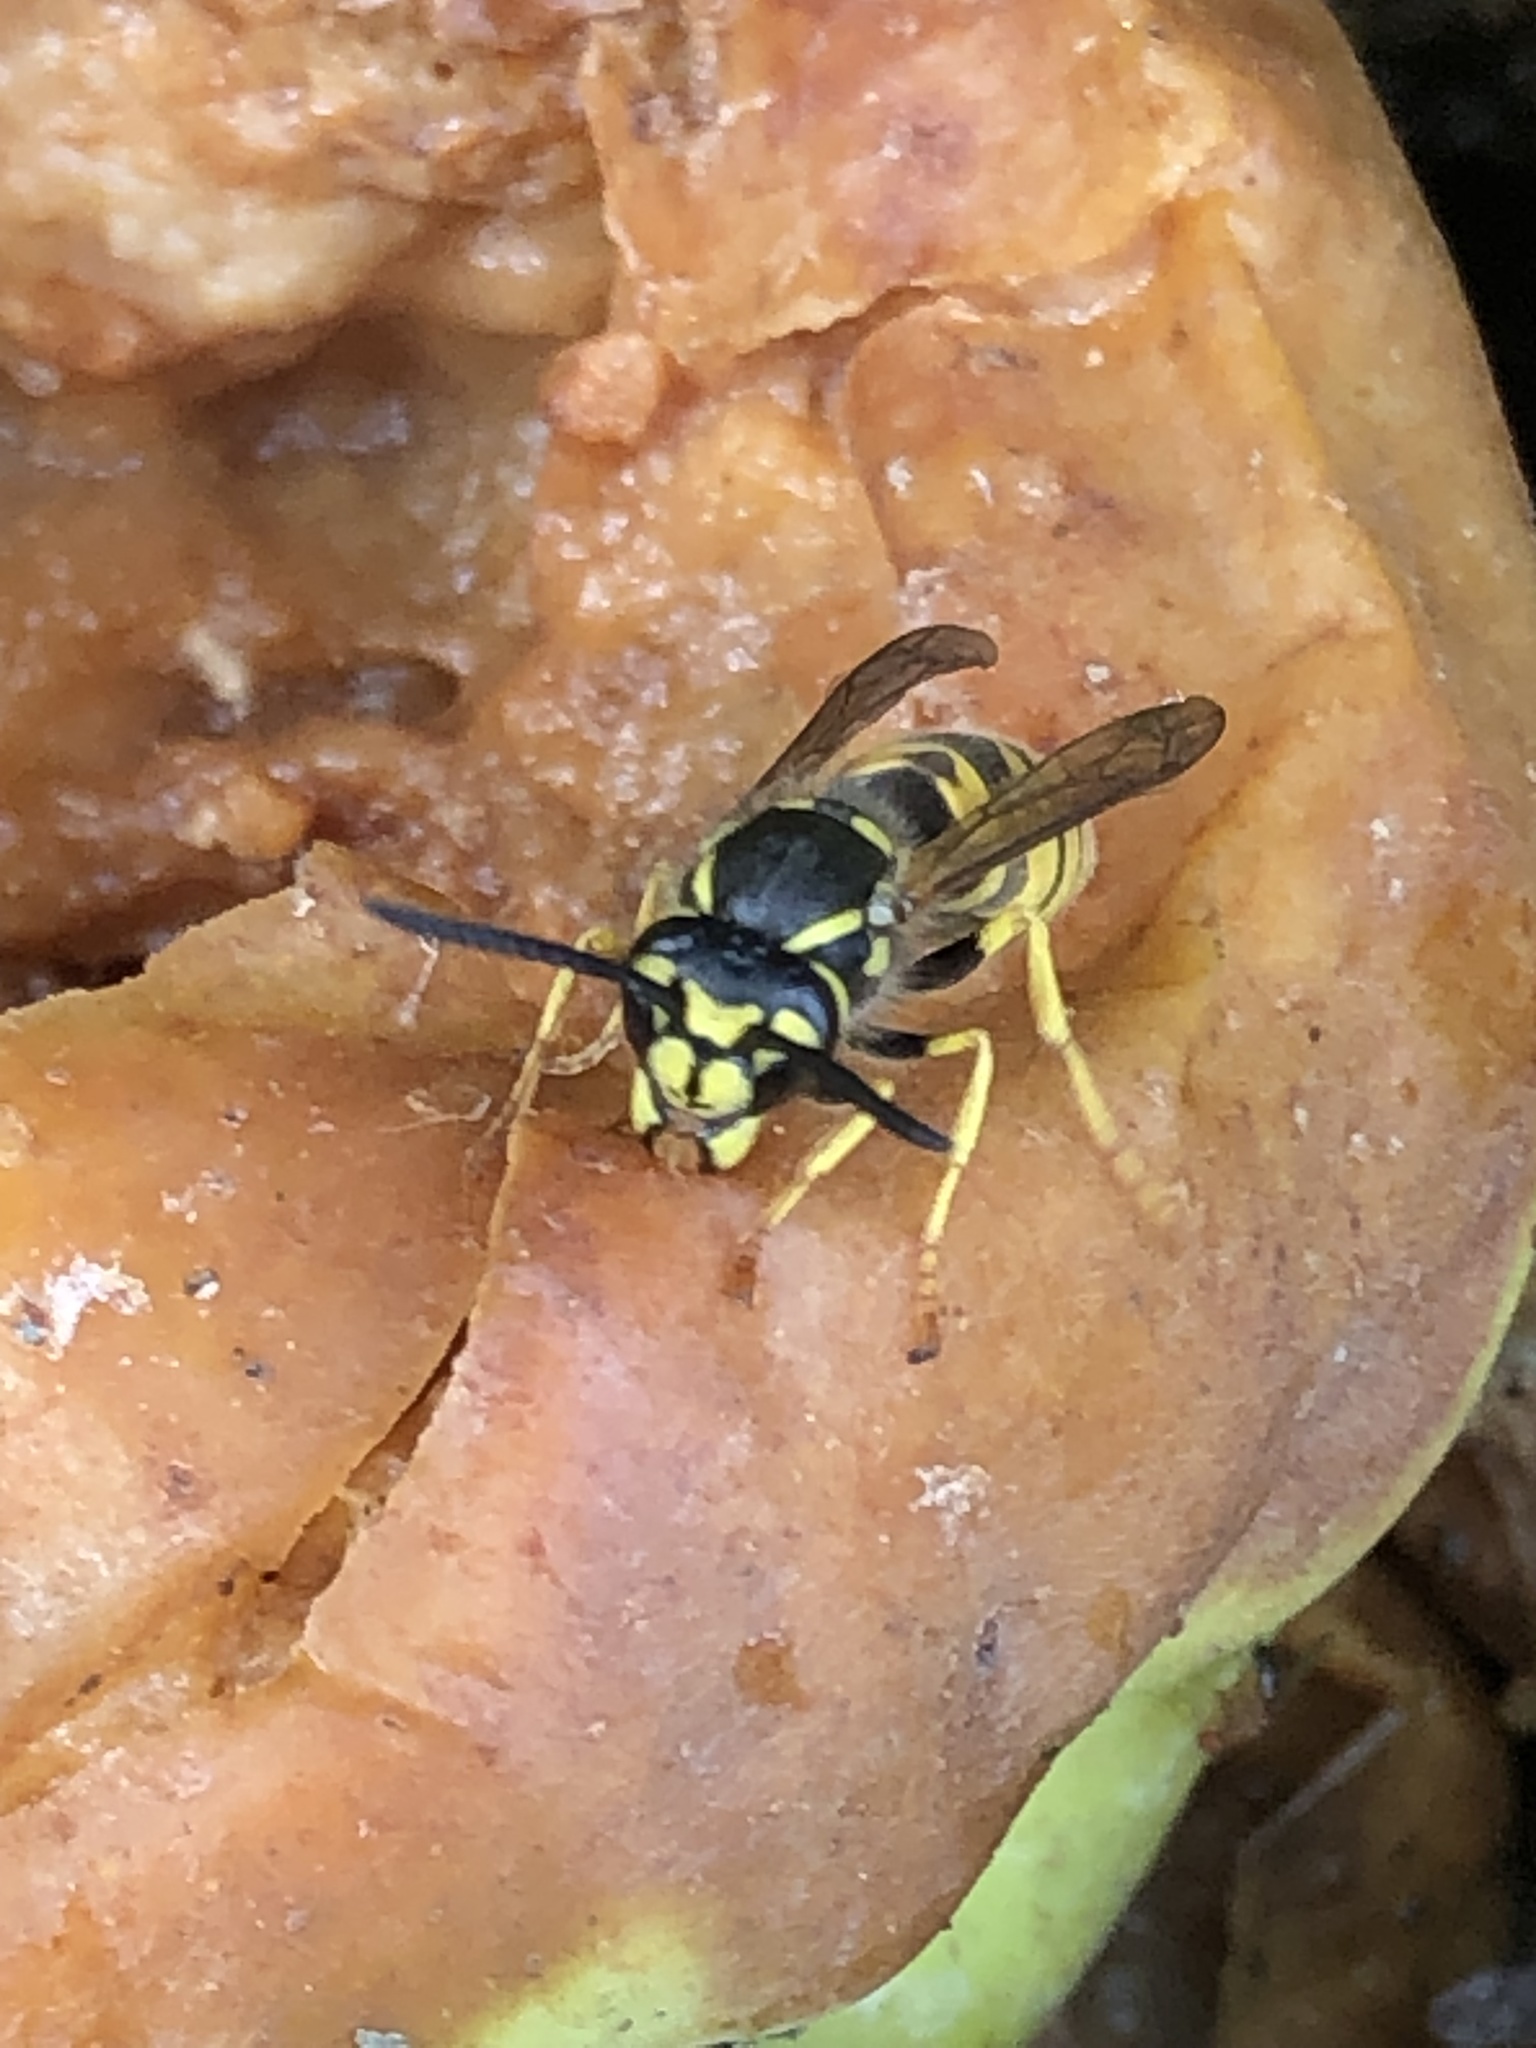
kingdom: Animalia
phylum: Arthropoda
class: Insecta
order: Hymenoptera
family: Vespidae
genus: Vespula
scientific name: Vespula germanica
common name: German wasp
